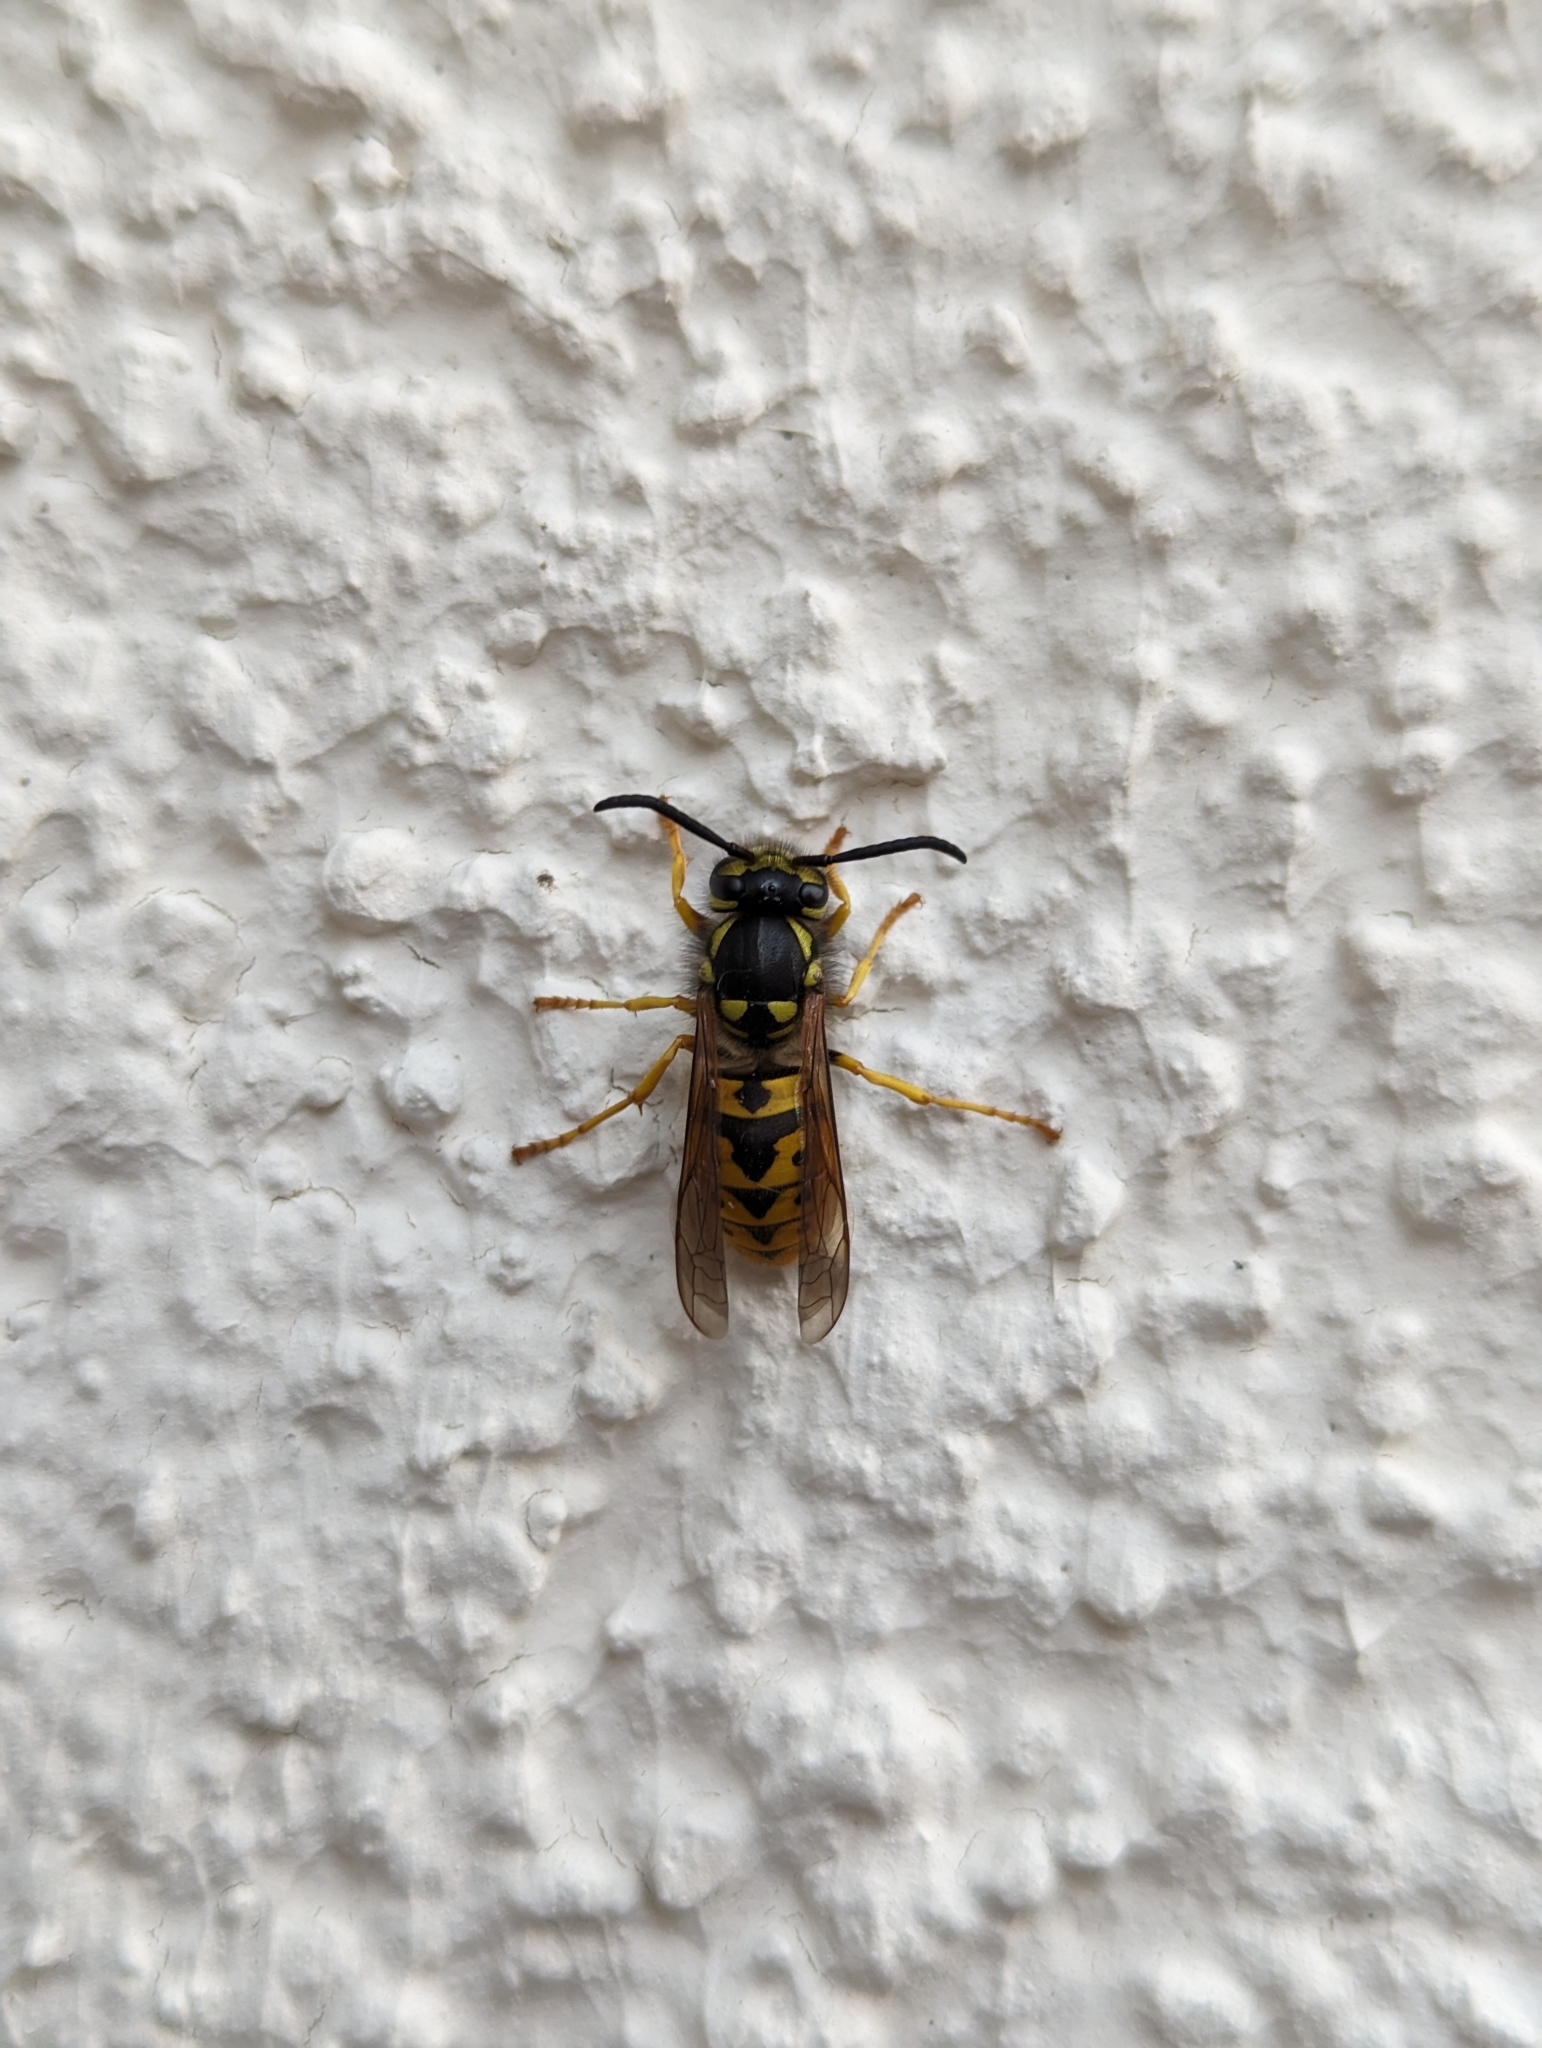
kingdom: Animalia
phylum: Arthropoda
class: Insecta
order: Hymenoptera
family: Vespidae
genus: Vespula
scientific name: Vespula germanica
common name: German wasp
